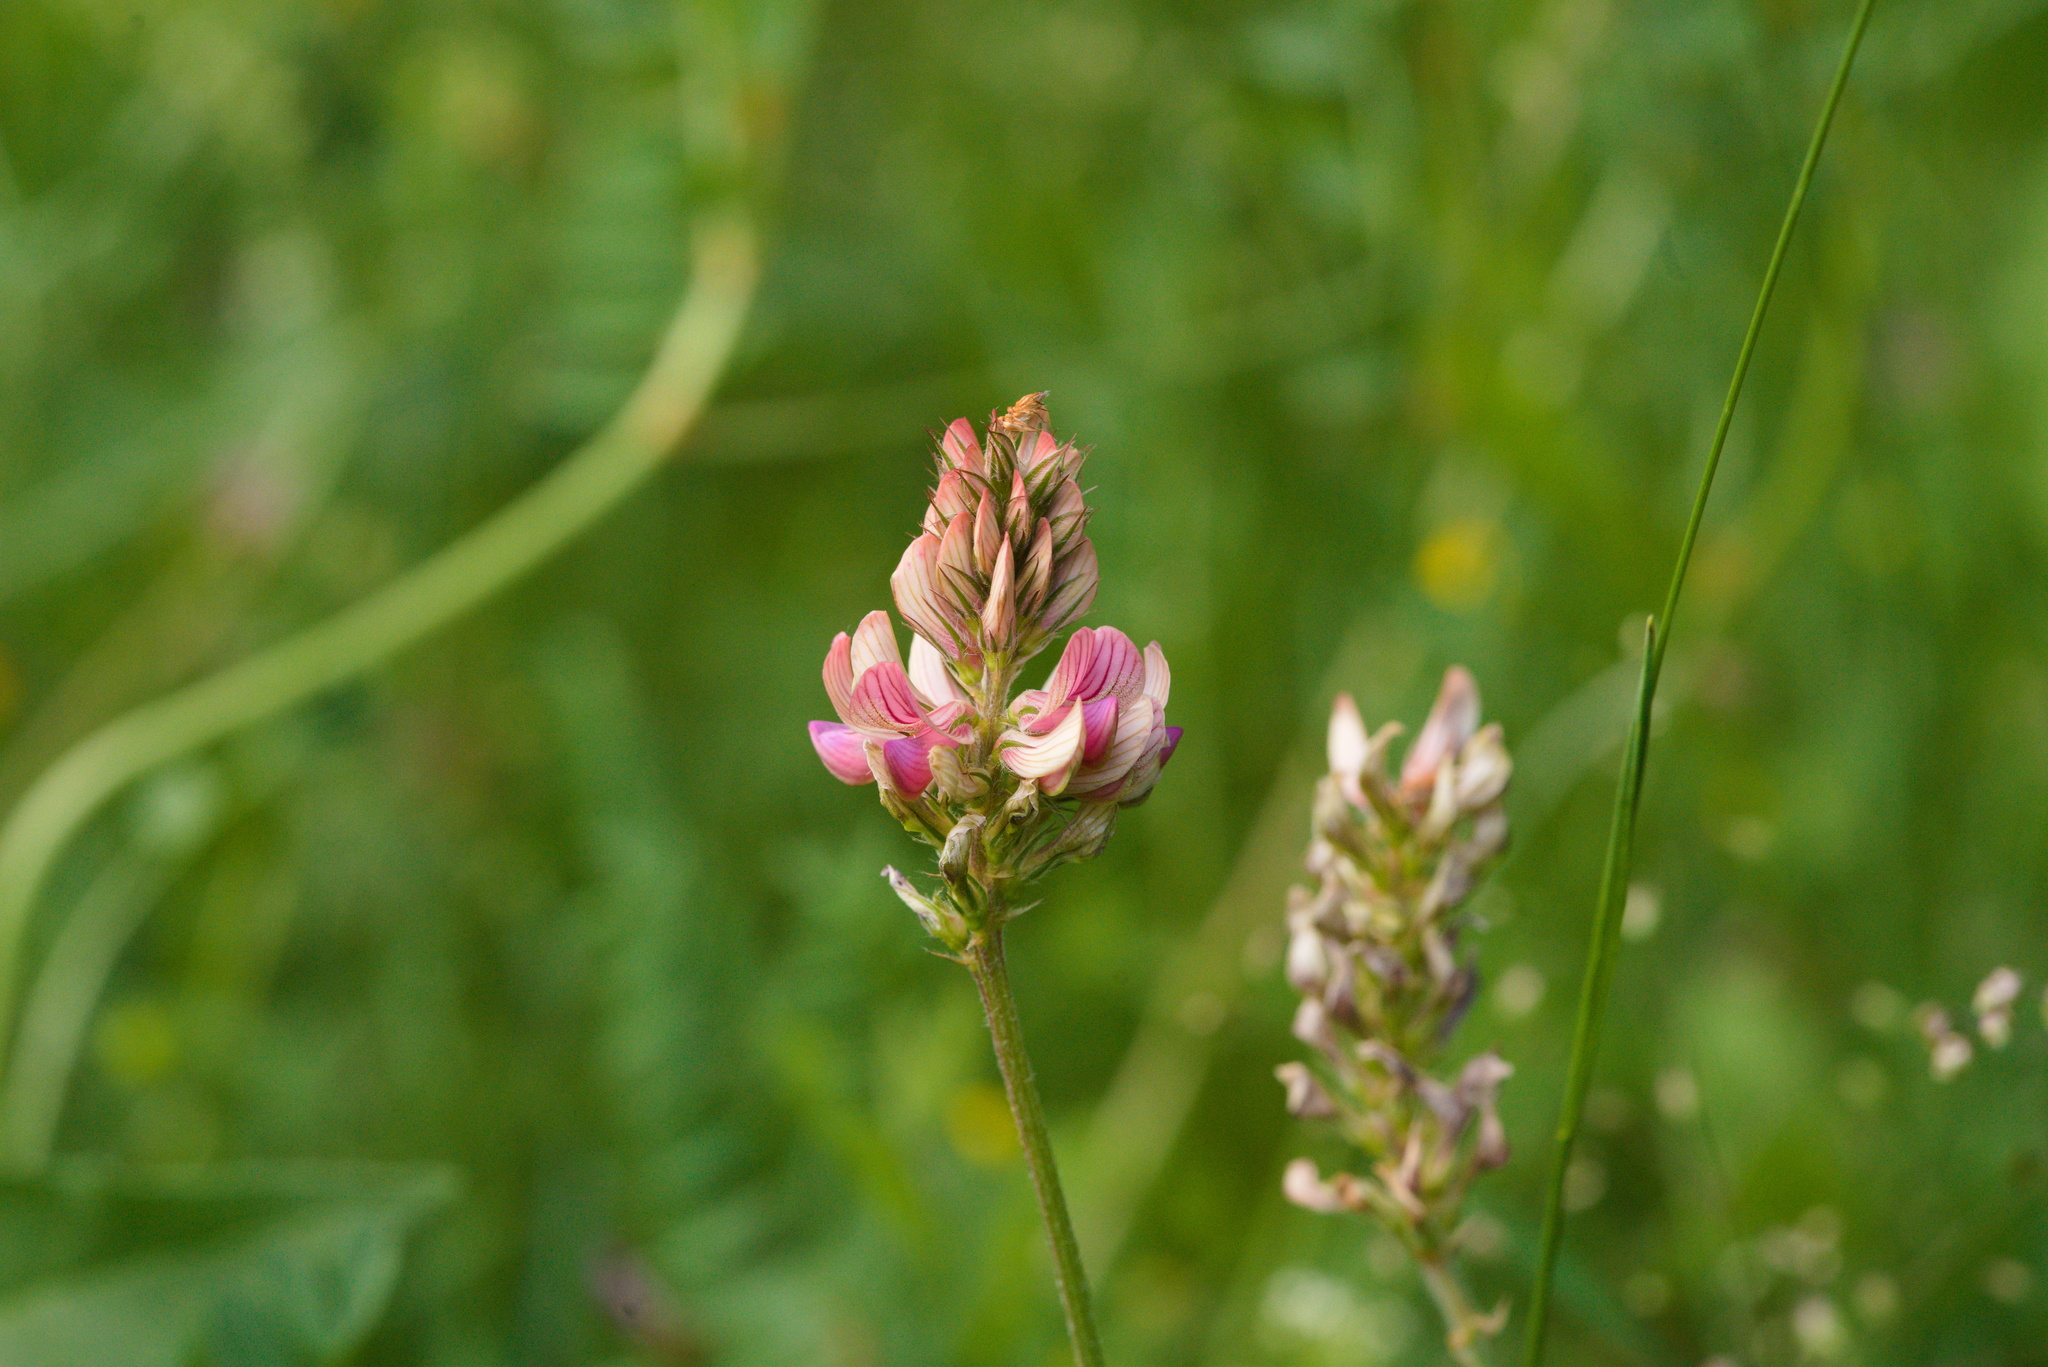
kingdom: Plantae
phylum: Tracheophyta
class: Magnoliopsida
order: Fabales
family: Fabaceae
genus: Onobrychis
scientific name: Onobrychis viciifolia
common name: Sainfoin
